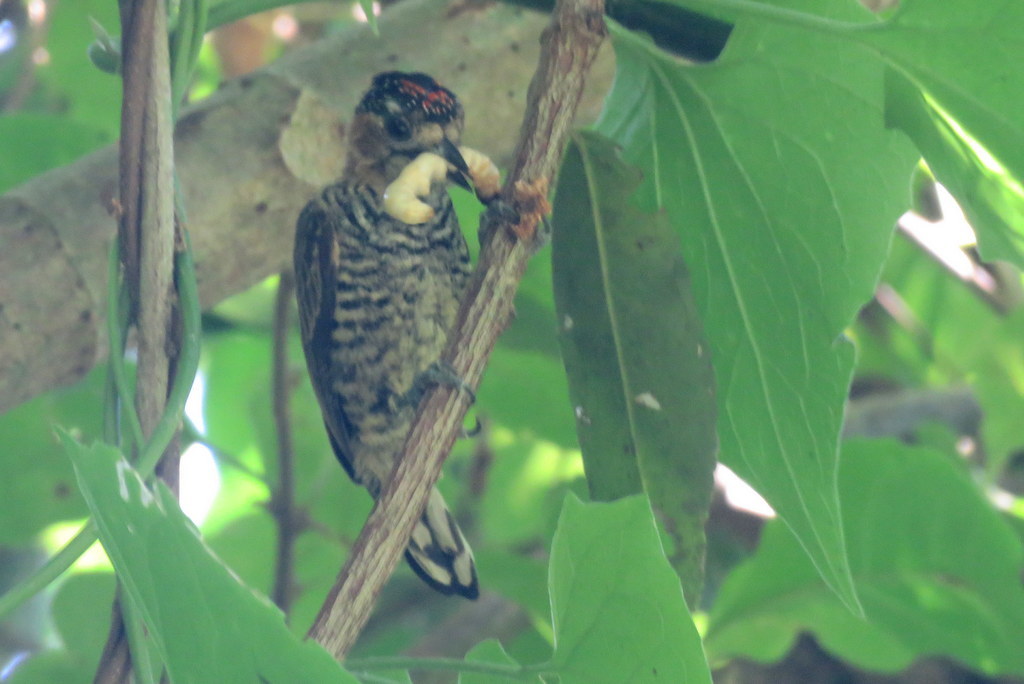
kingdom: Animalia
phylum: Chordata
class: Aves
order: Piciformes
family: Picidae
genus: Picumnus
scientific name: Picumnus temminckii
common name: Ochre-collared piculet
